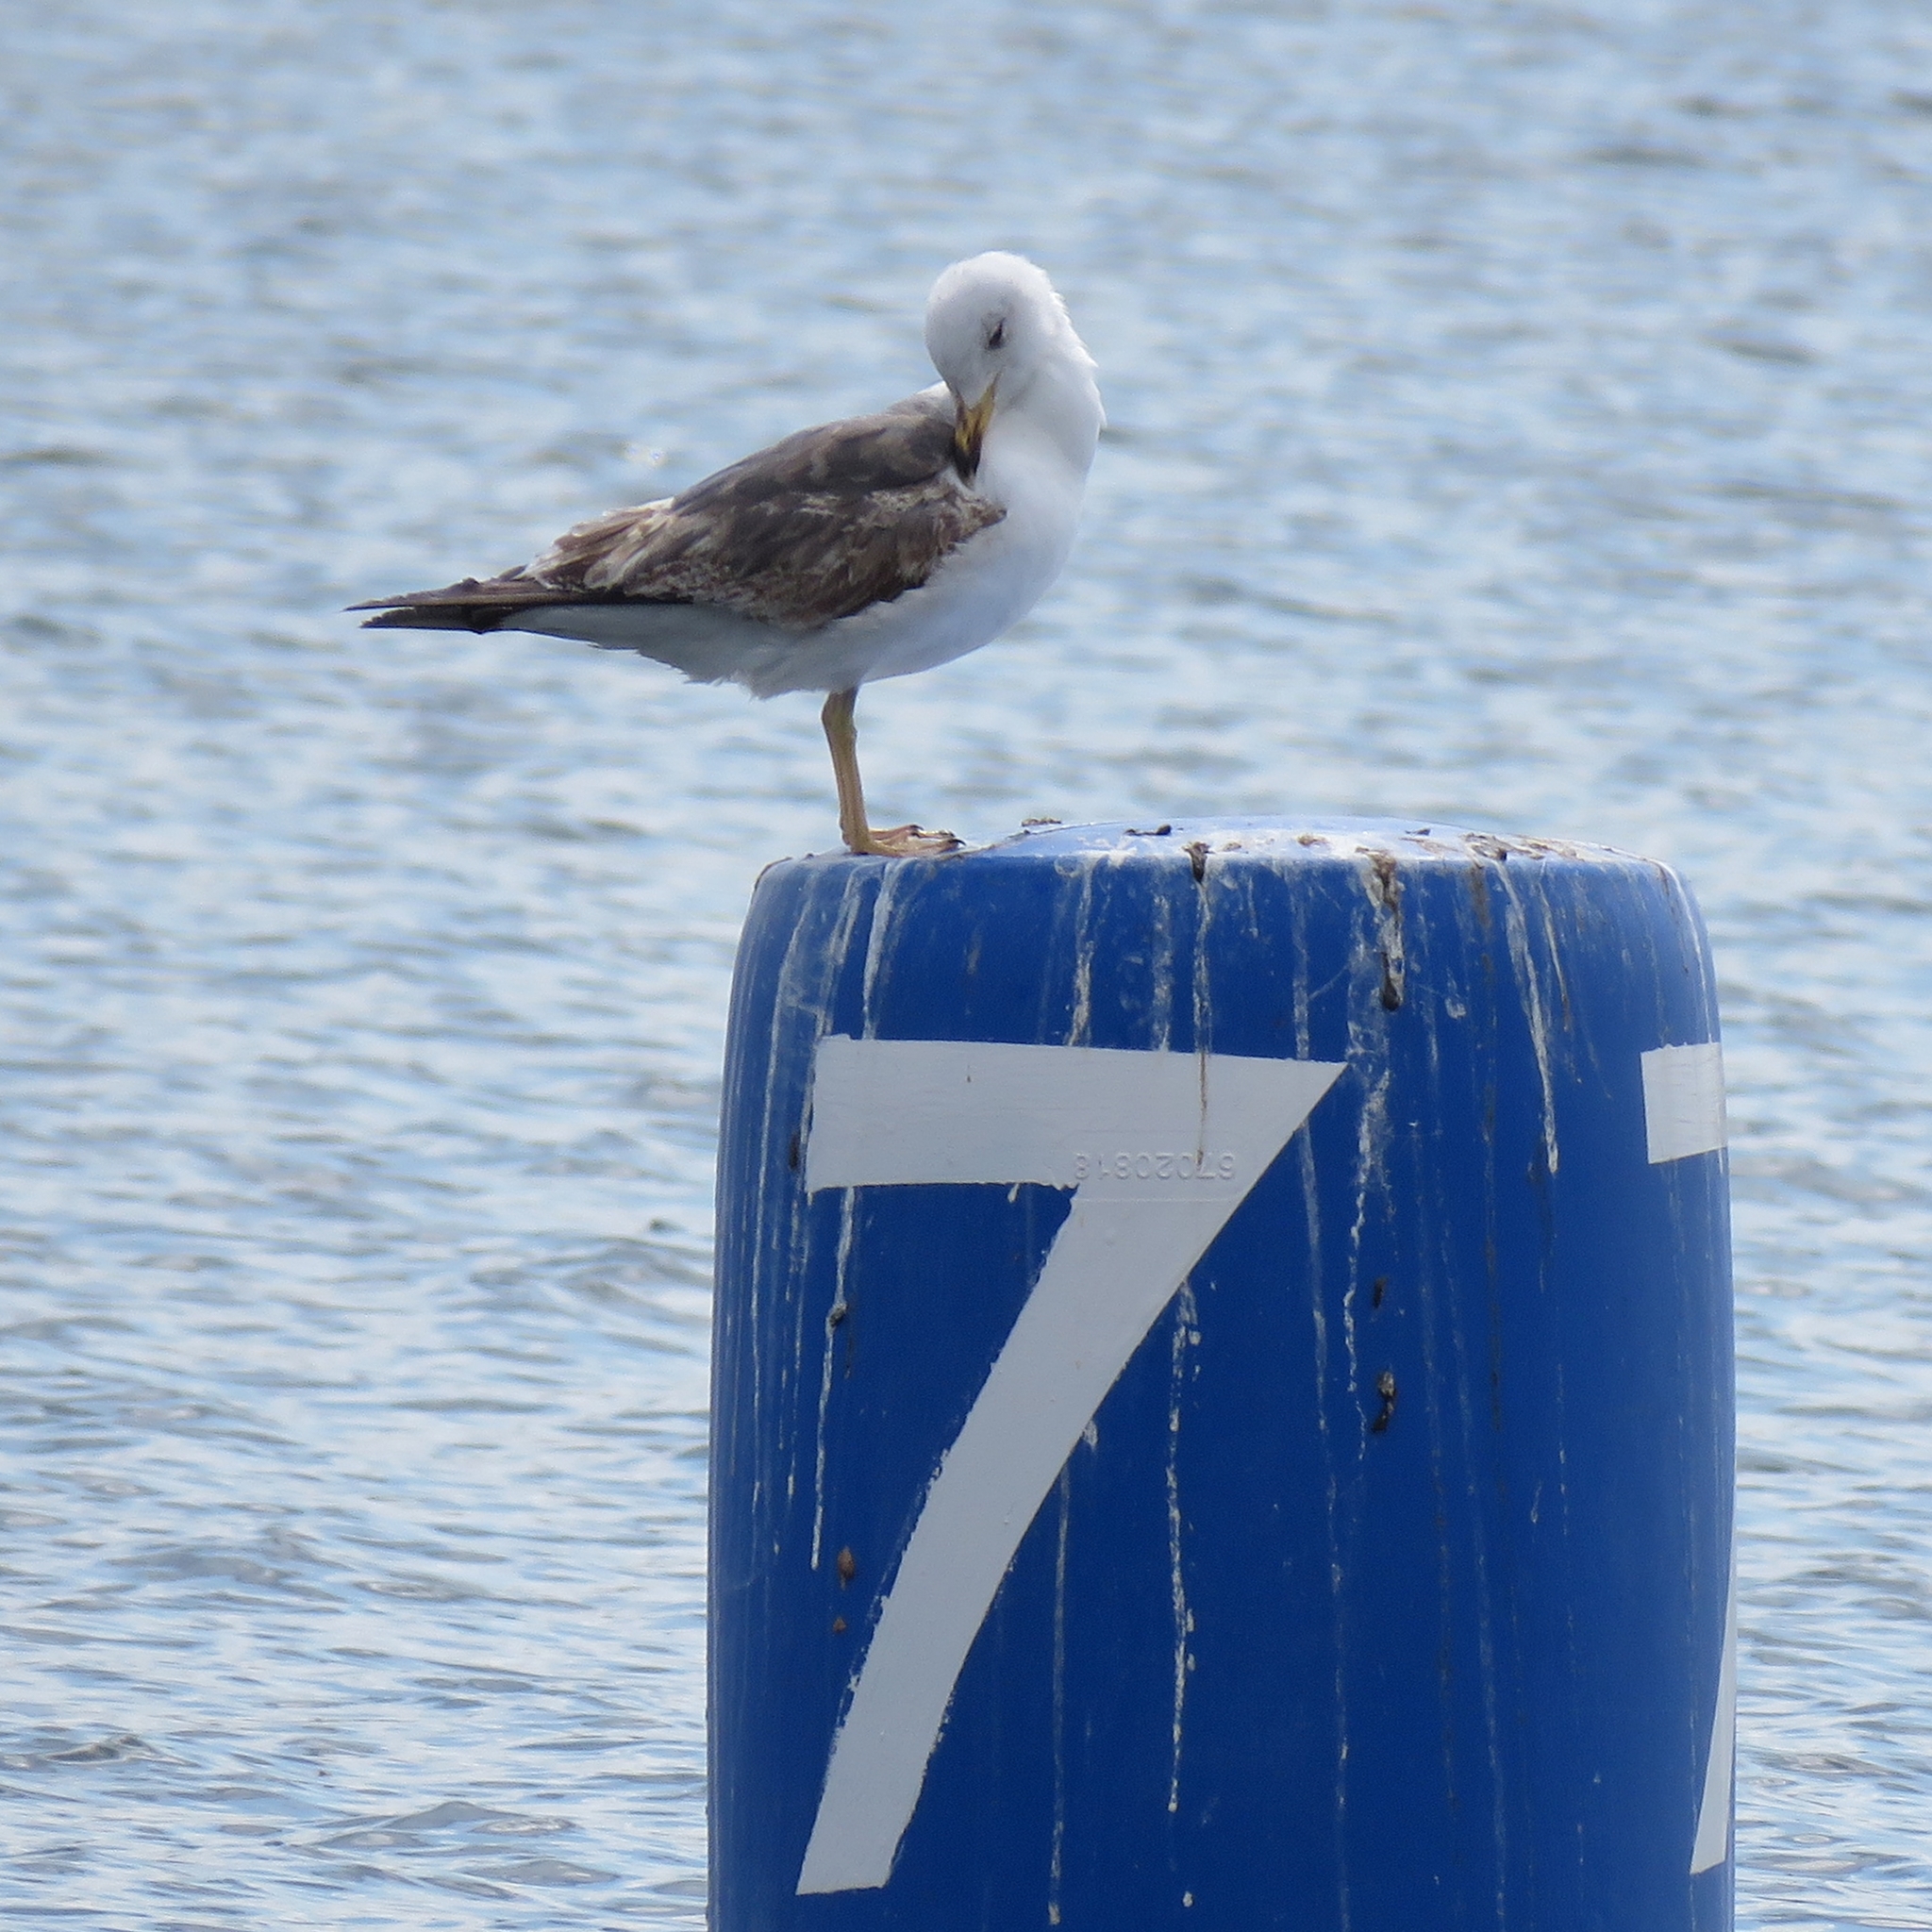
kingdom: Animalia
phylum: Chordata
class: Aves
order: Charadriiformes
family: Laridae
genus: Larus
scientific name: Larus fuscus
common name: Lesser black-backed gull
